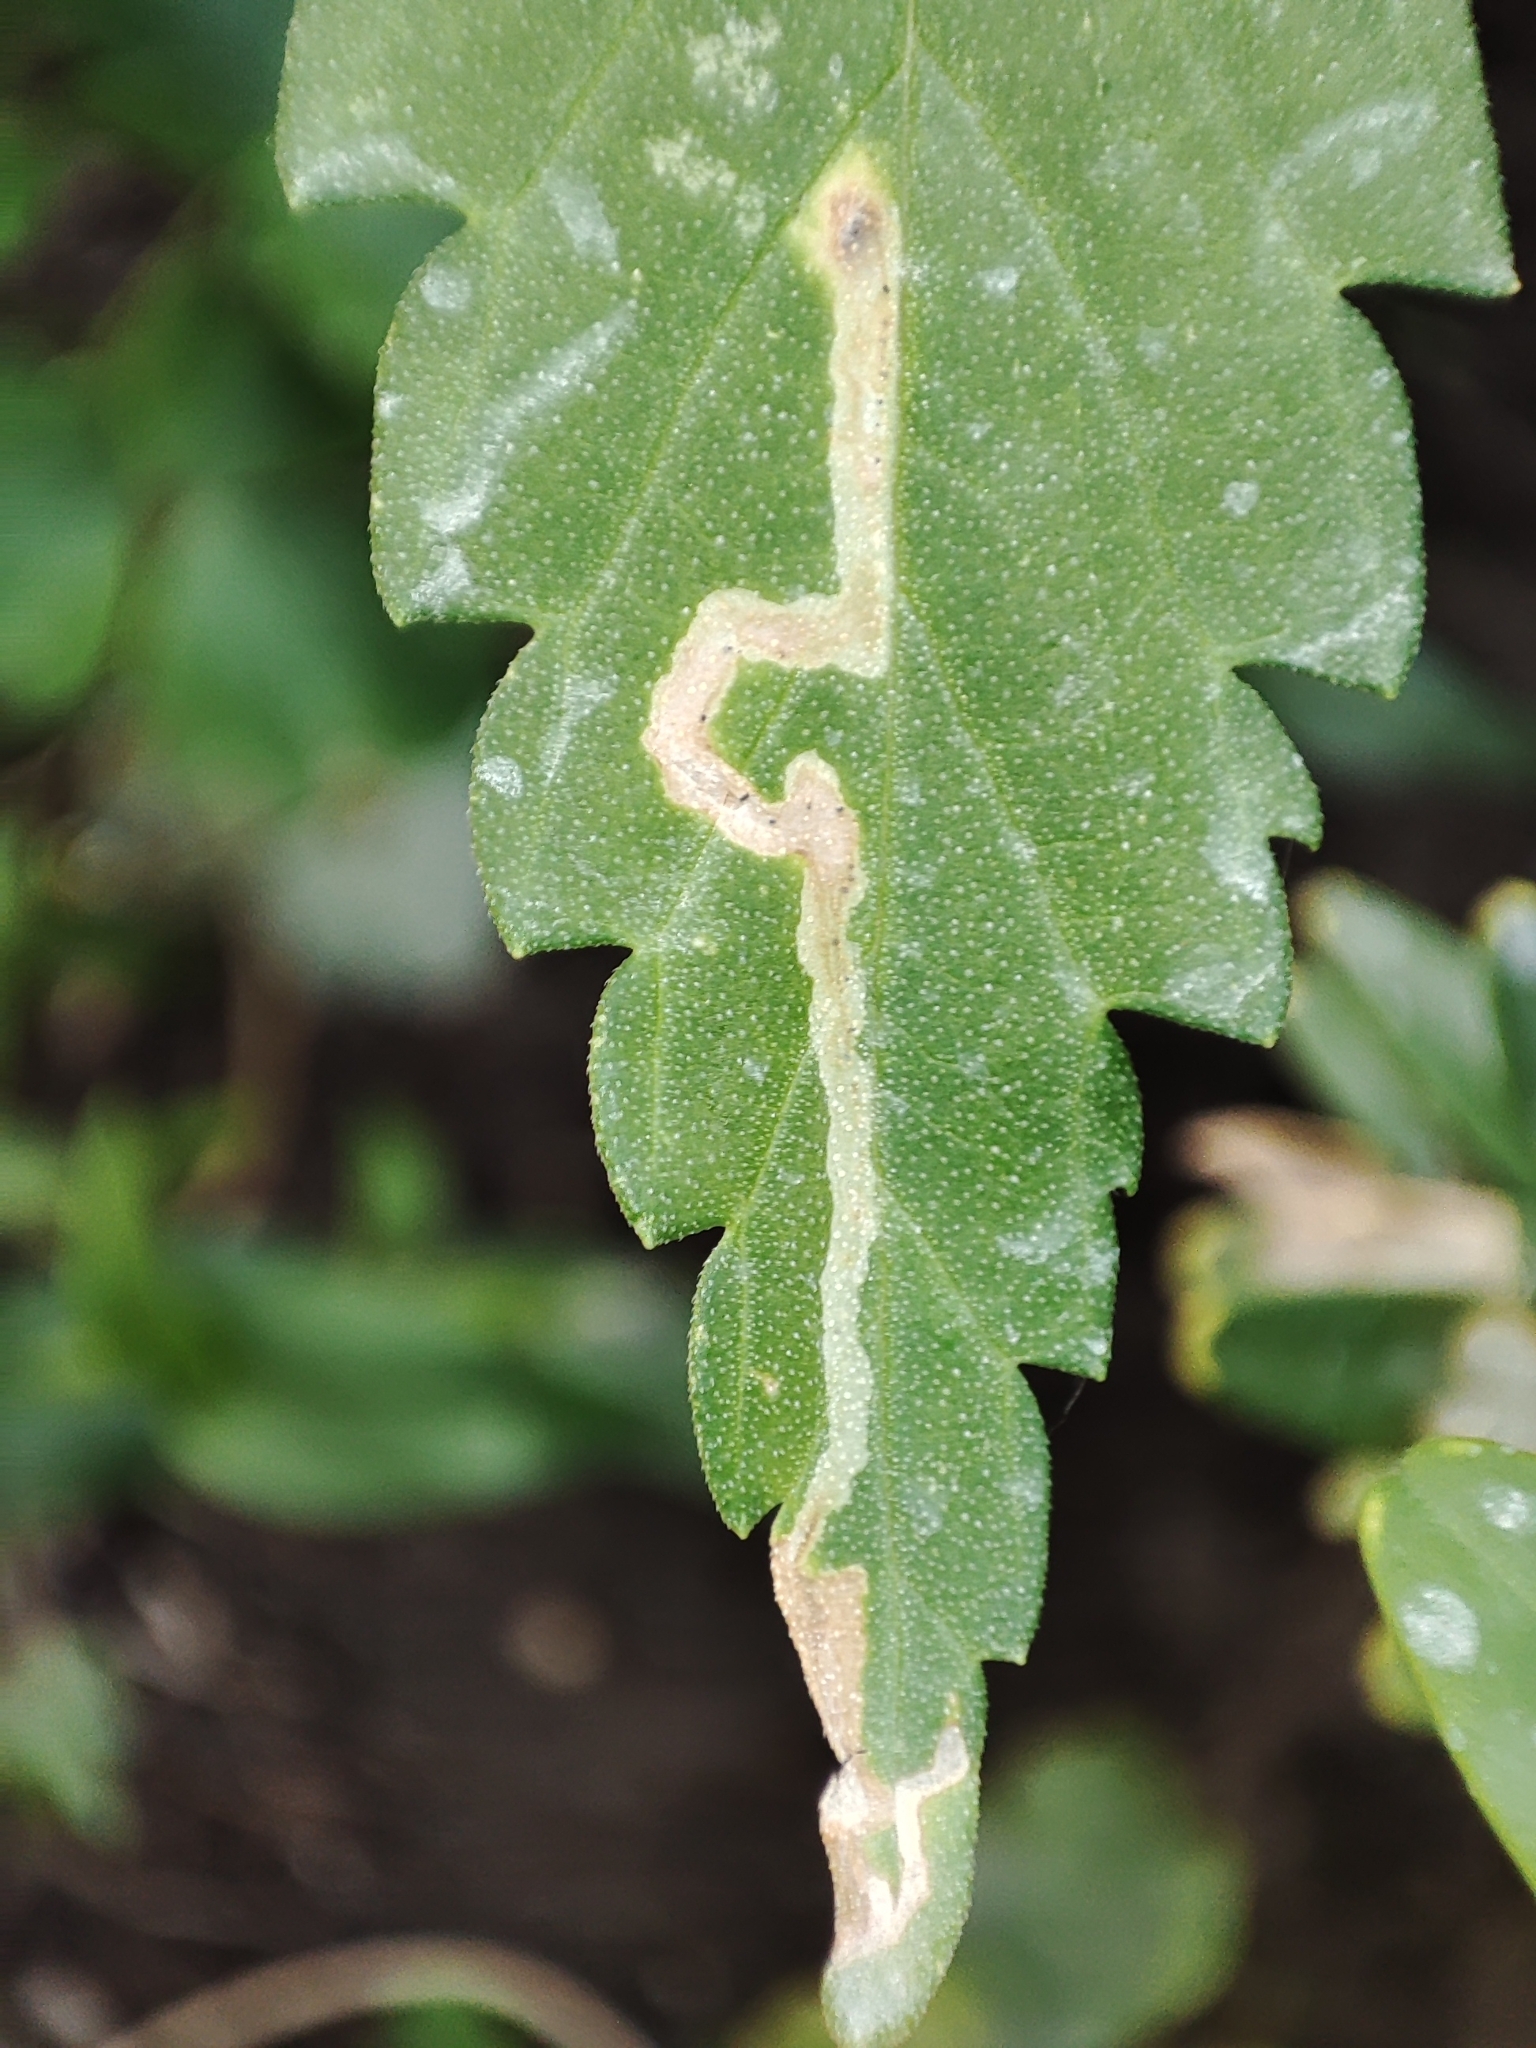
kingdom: Plantae
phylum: Tracheophyta
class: Magnoliopsida
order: Rosales
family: Cannabaceae
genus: Cannabis
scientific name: Cannabis sativa
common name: Hemp
